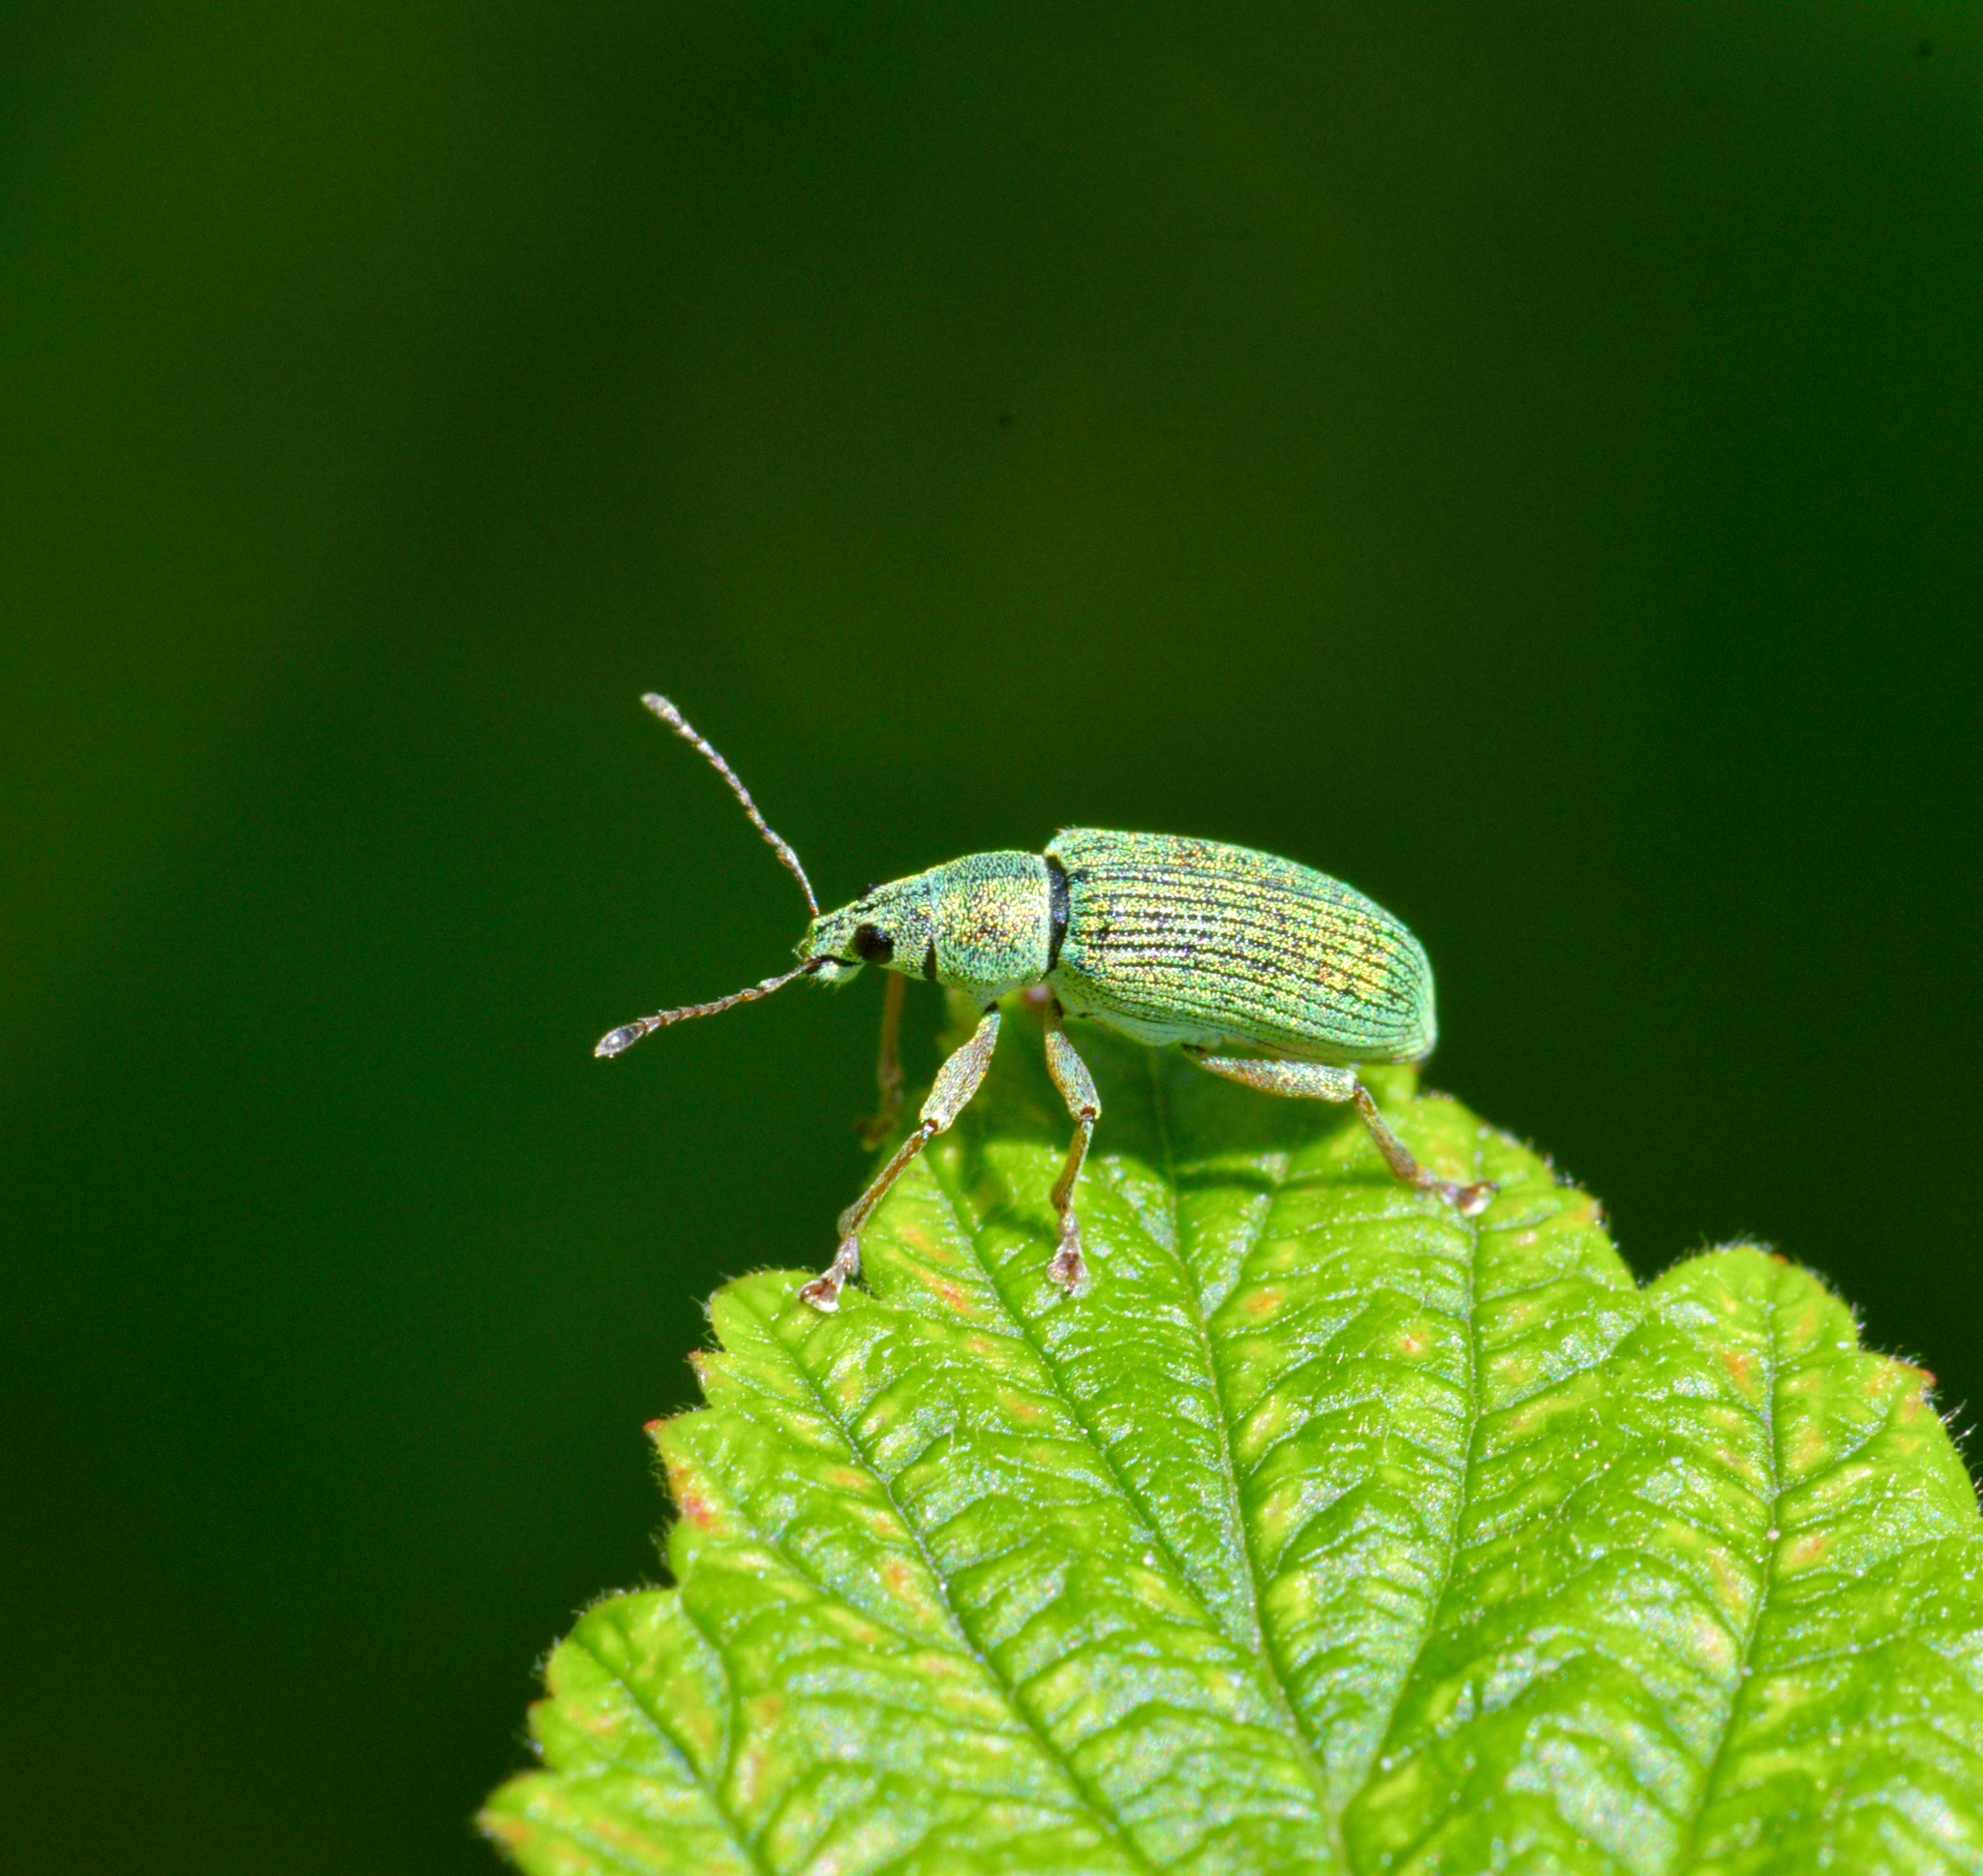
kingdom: Animalia
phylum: Arthropoda
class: Insecta
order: Coleoptera
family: Curculionidae
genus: Polydrusus
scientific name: Polydrusus formosus
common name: Weevil
